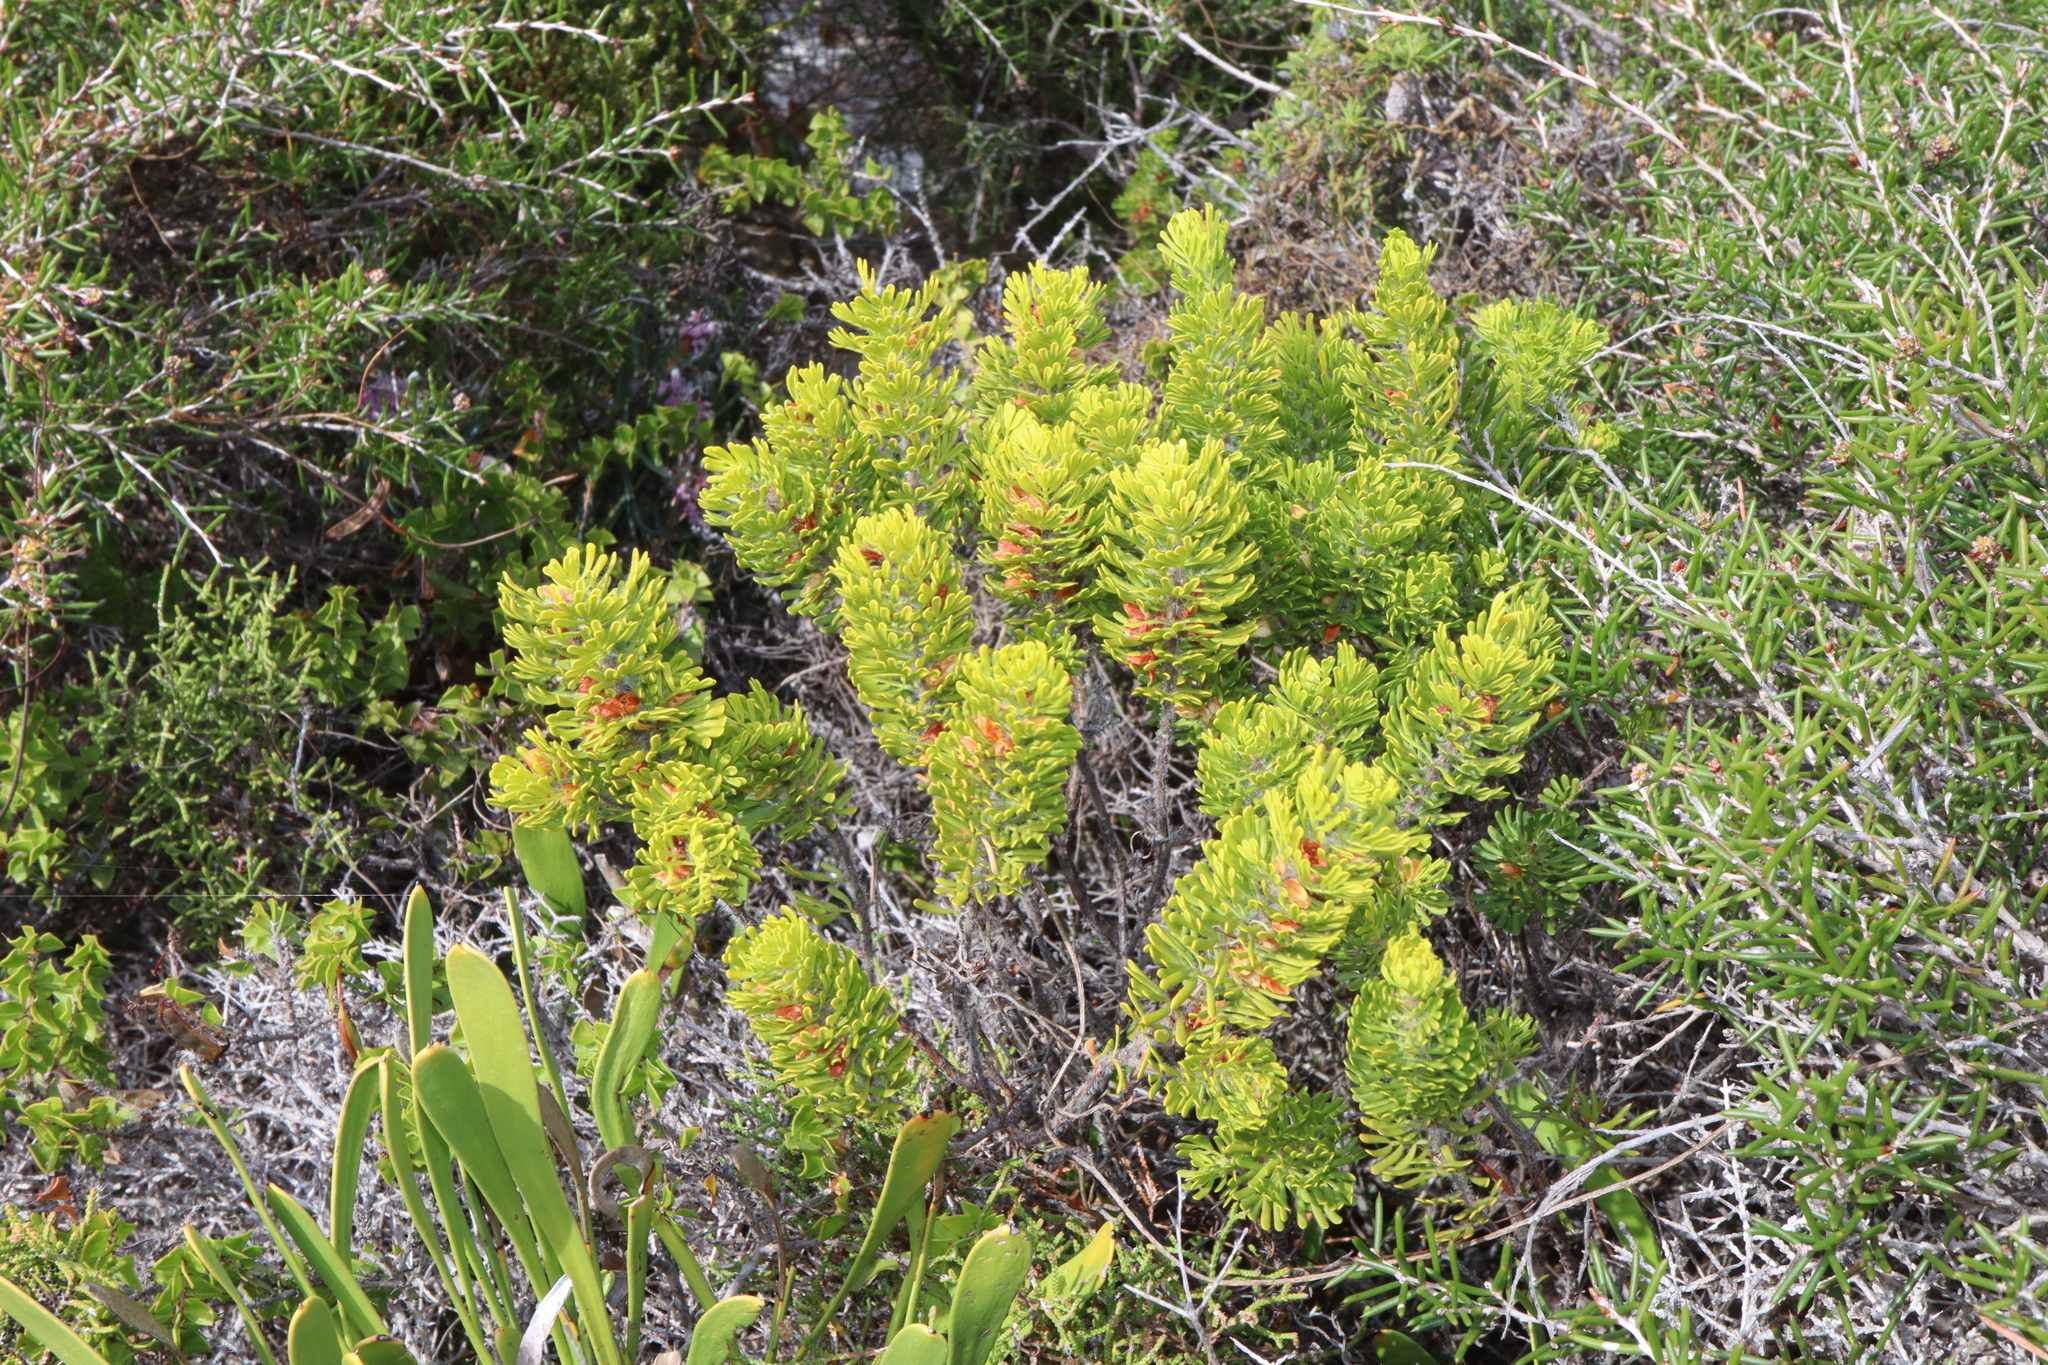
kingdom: Plantae
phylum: Tracheophyta
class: Magnoliopsida
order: Sapindales
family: Rutaceae
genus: Boronia
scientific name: Boronia tetrandra
